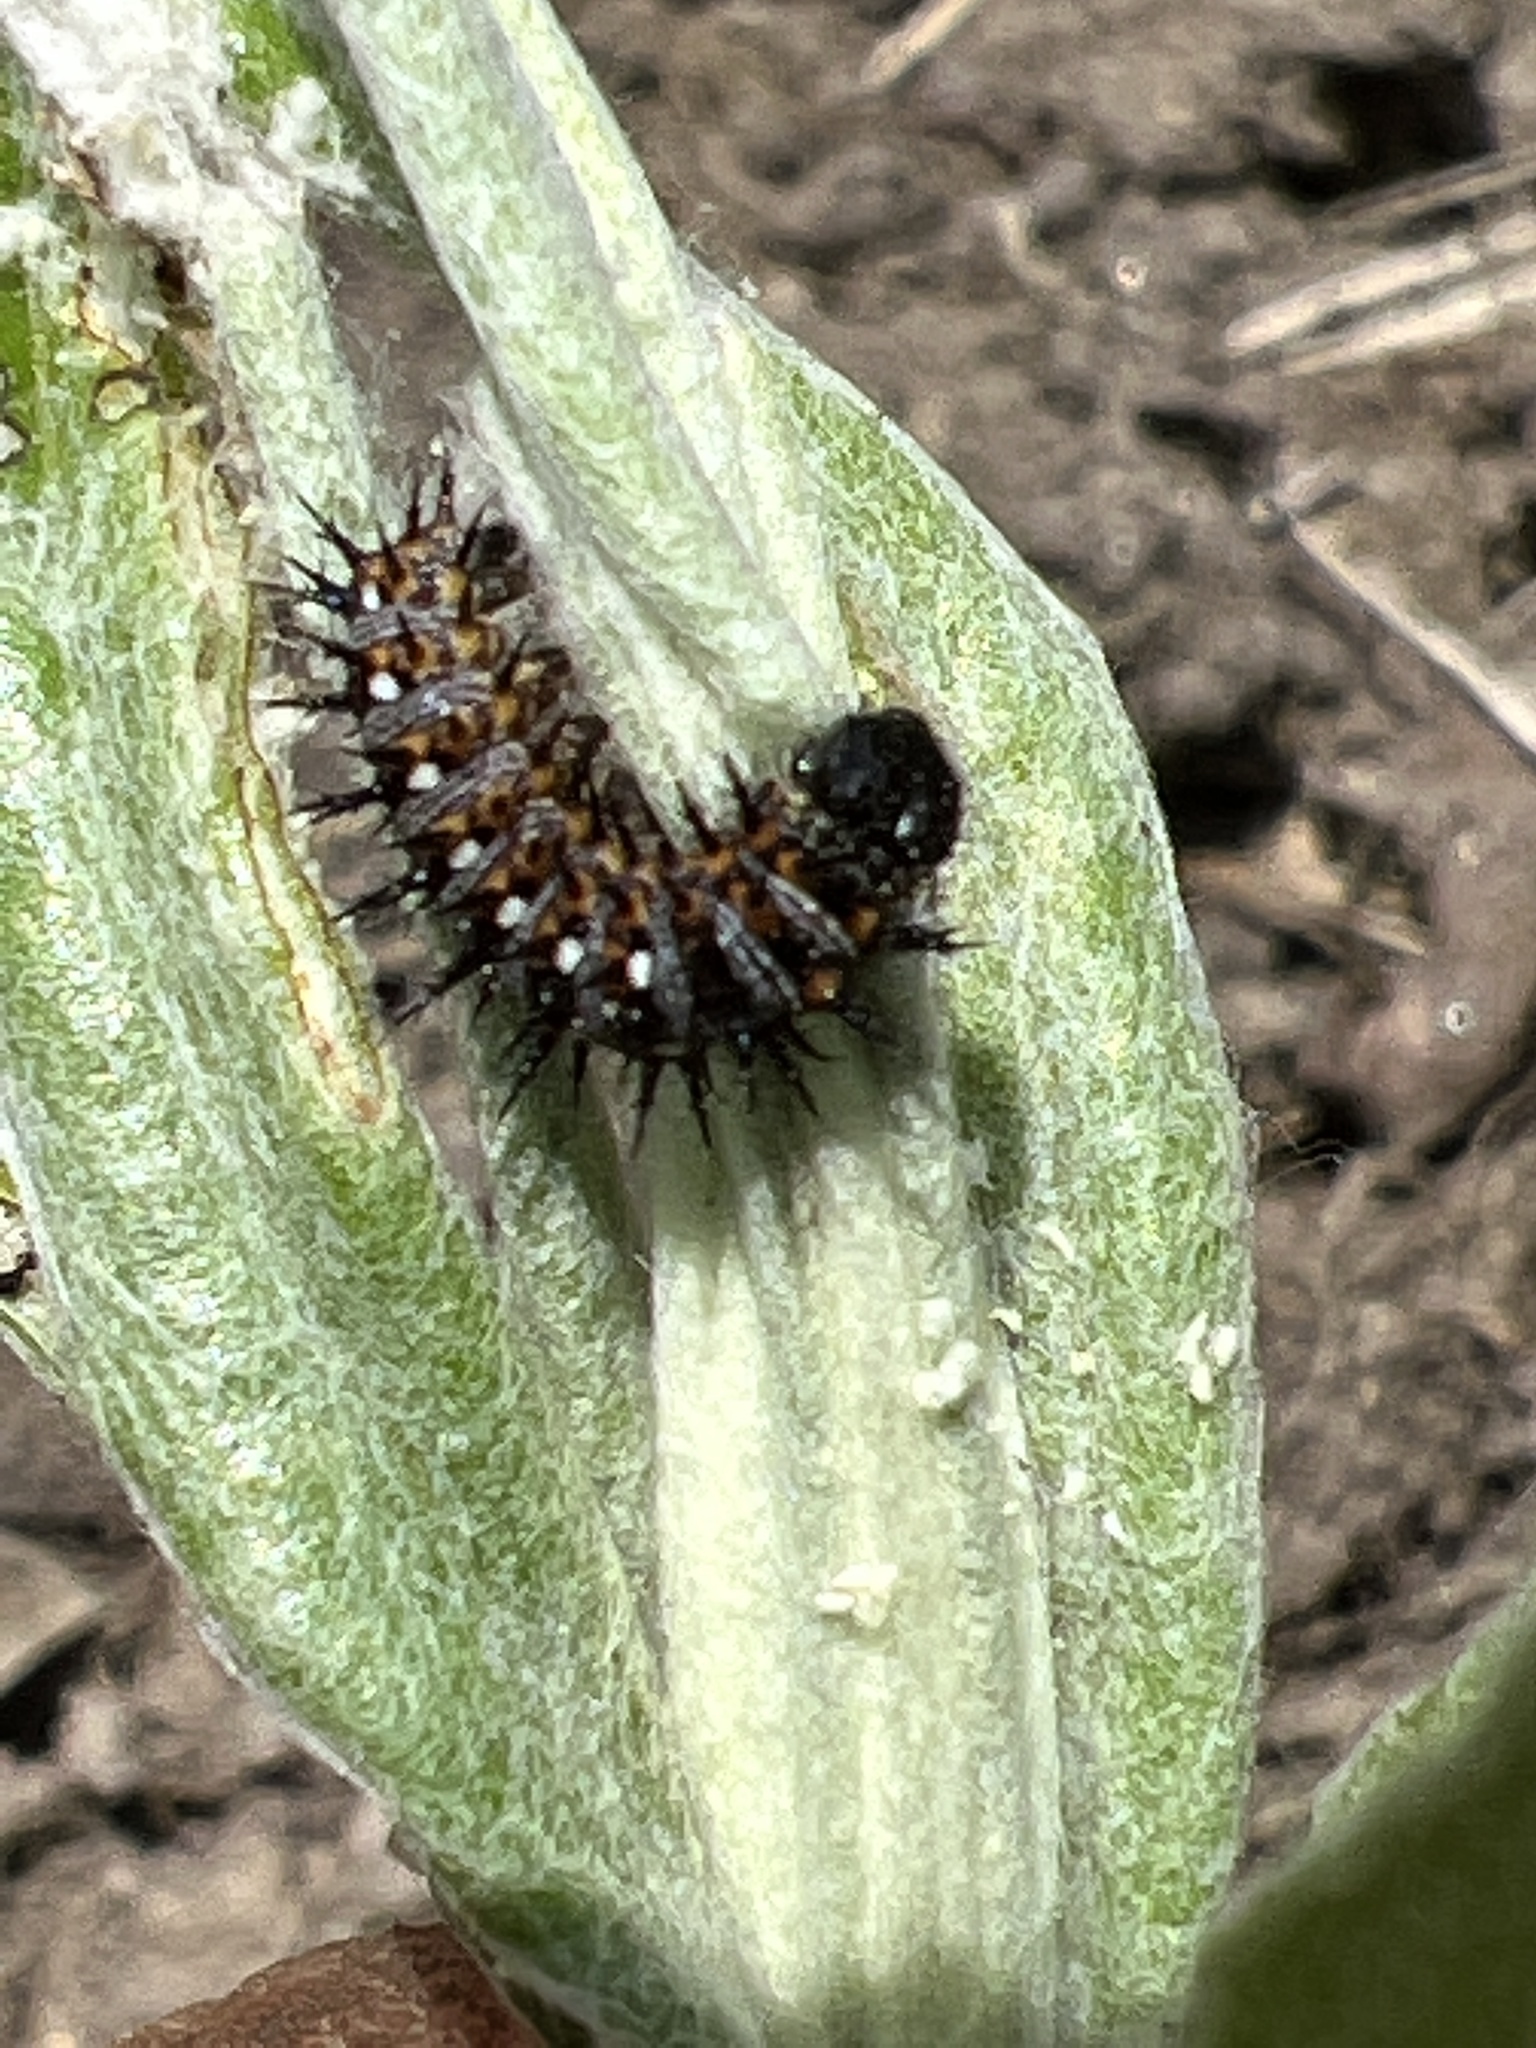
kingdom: Animalia
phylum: Arthropoda
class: Insecta
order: Lepidoptera
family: Nymphalidae
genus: Vanessa
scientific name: Vanessa virginiensis
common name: American lady
